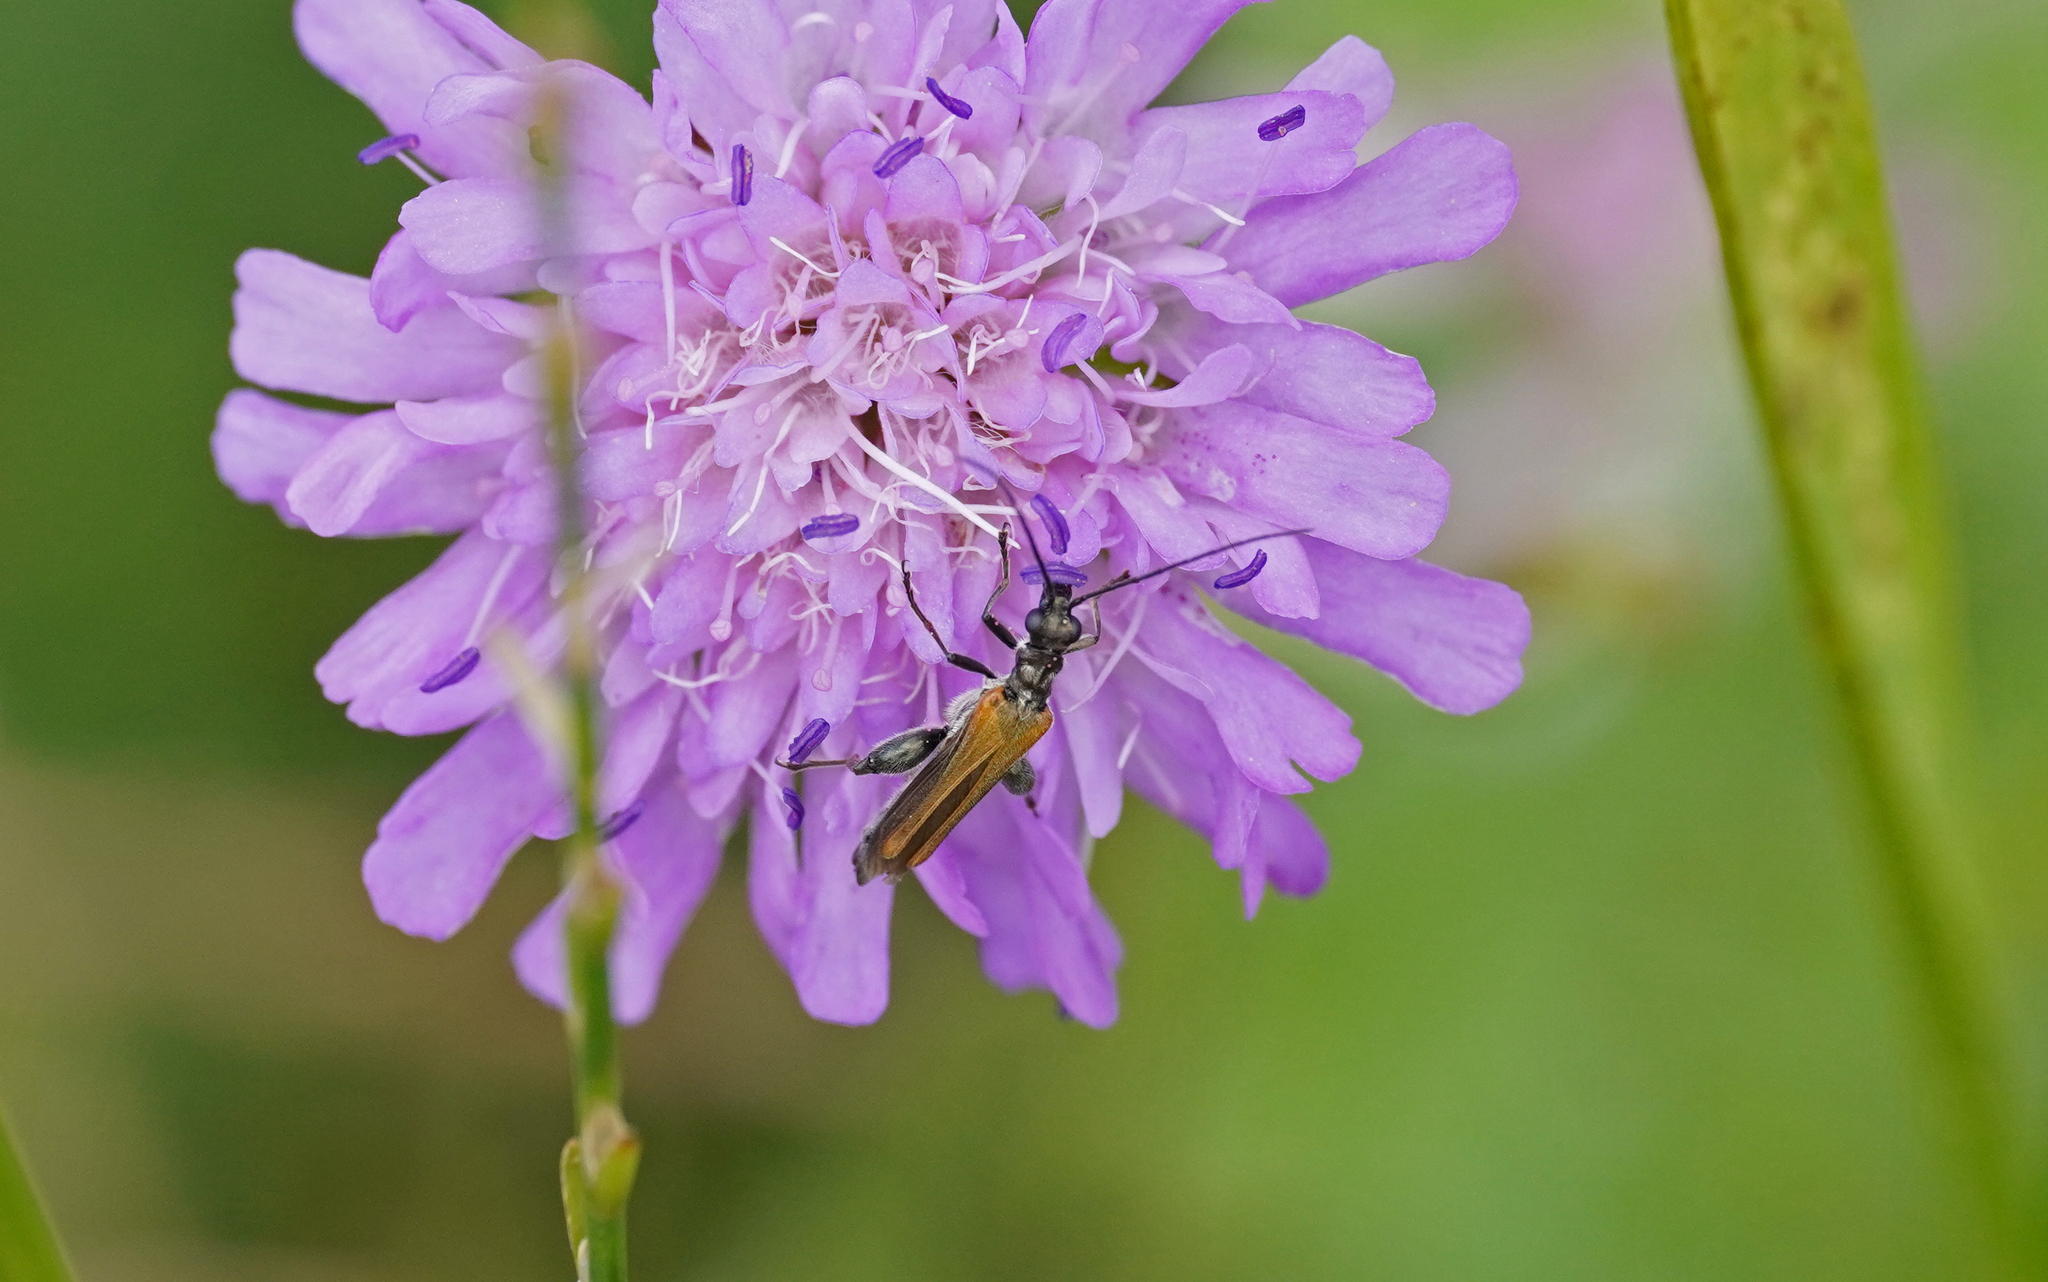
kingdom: Animalia
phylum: Arthropoda
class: Insecta
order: Coleoptera
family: Oedemeridae
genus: Oedemera
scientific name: Oedemera femorata
